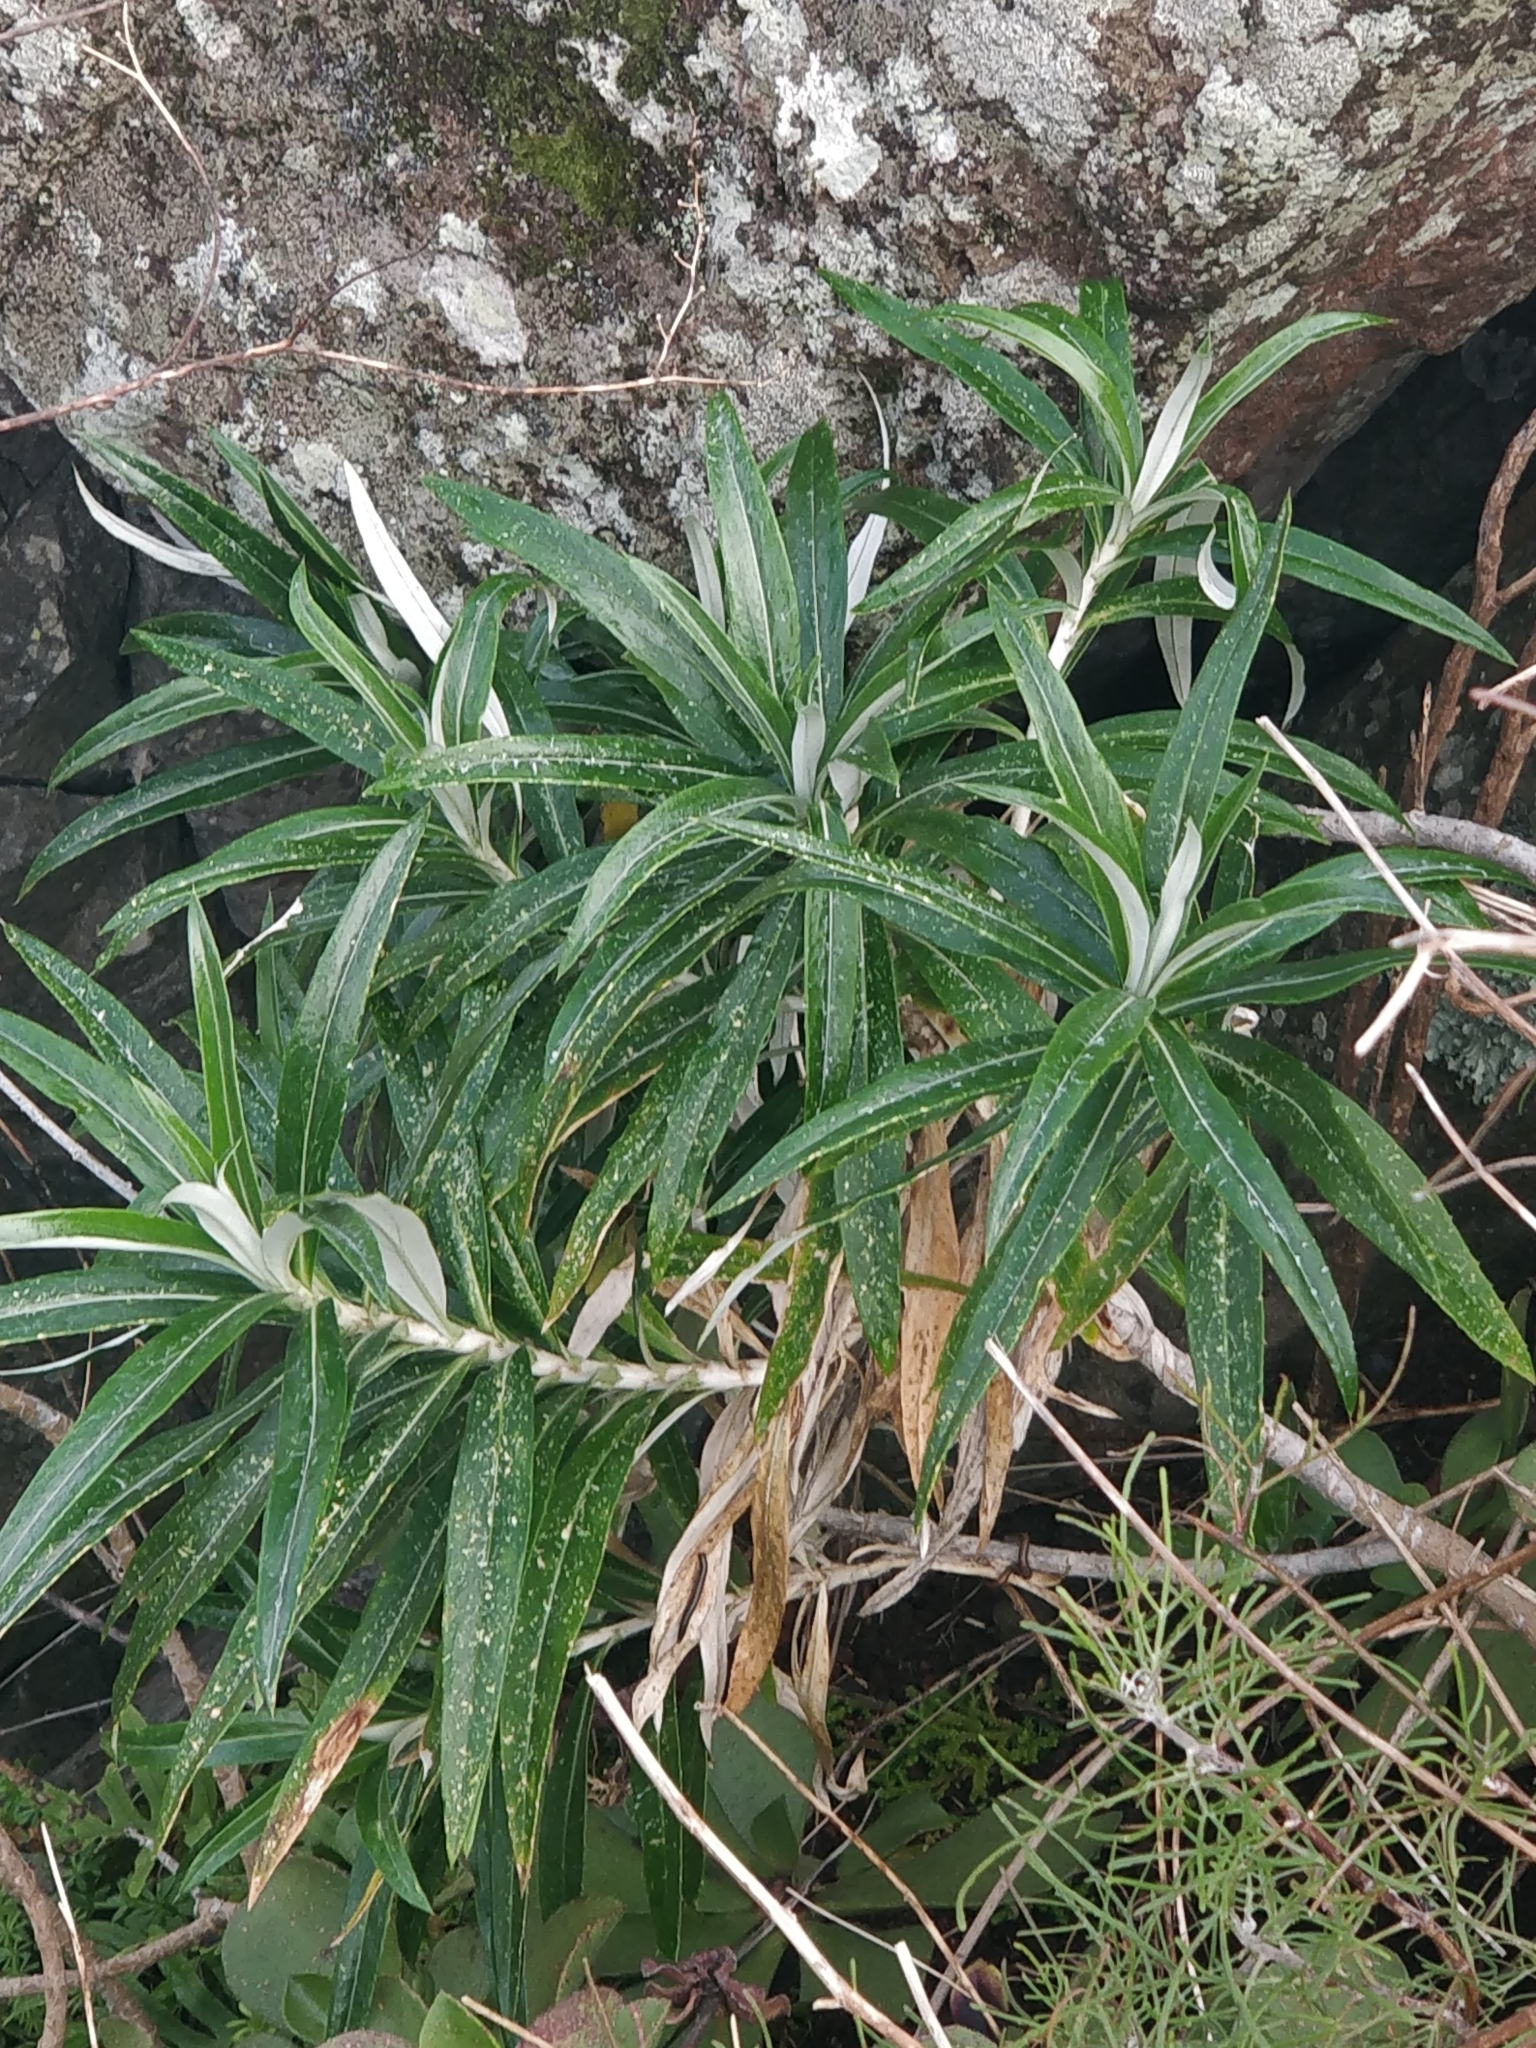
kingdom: Plantae
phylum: Tracheophyta
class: Magnoliopsida
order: Asterales
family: Asteraceae
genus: Carlina
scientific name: Carlina salicifolia
